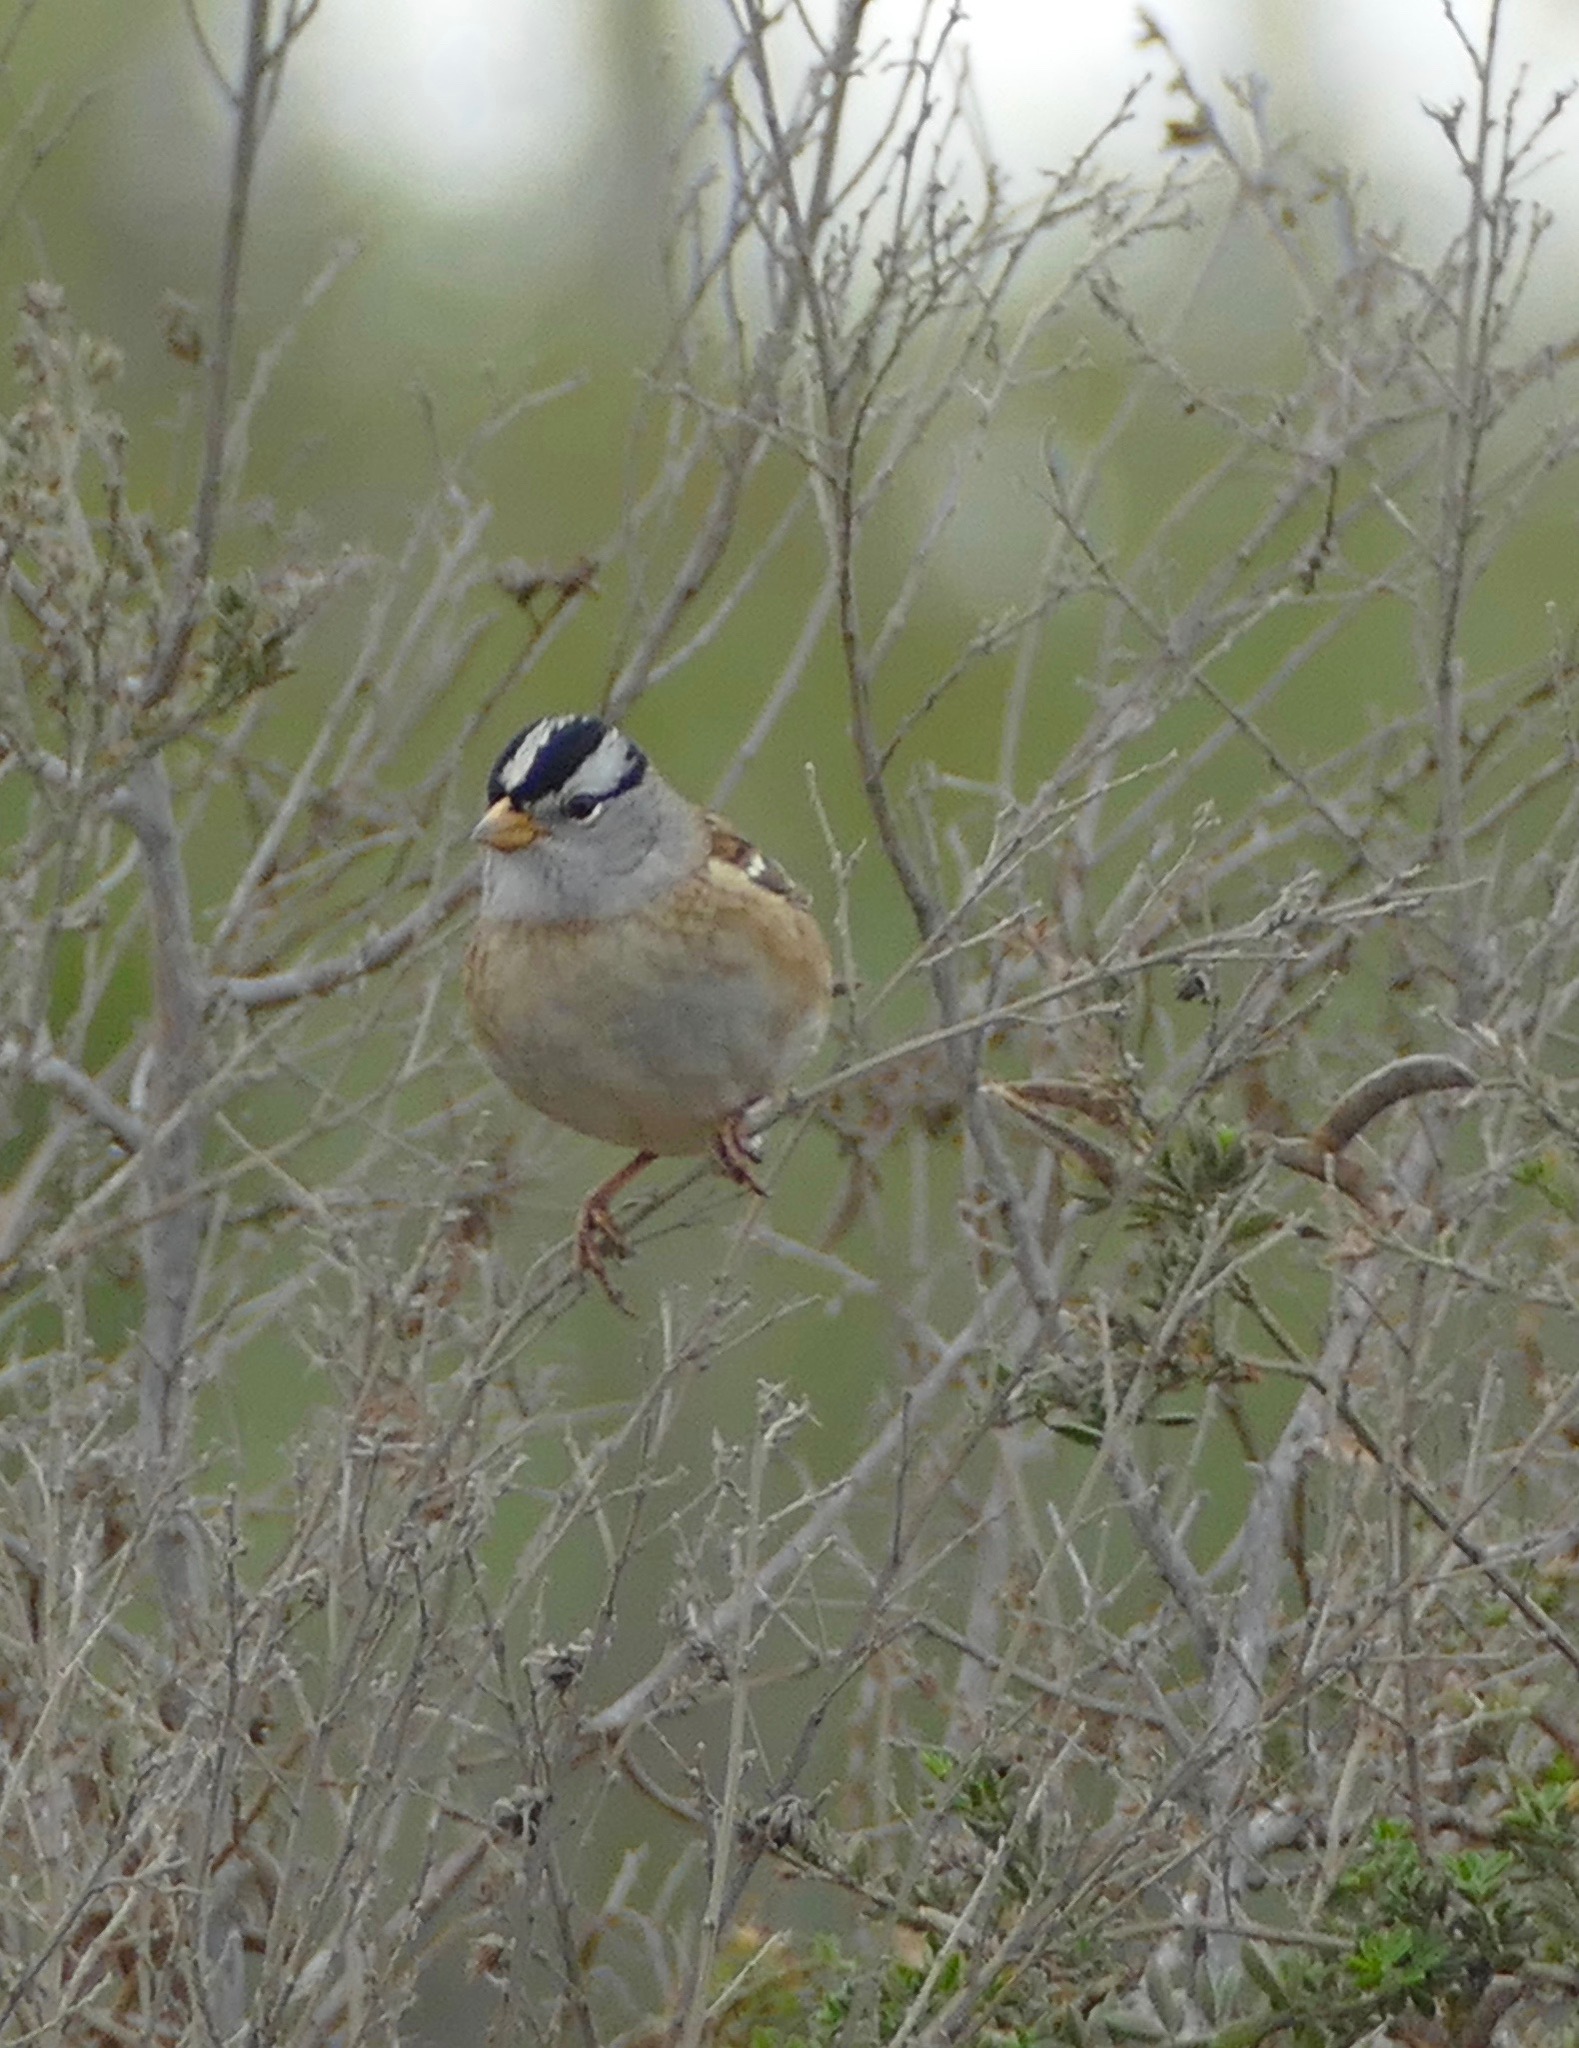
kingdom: Animalia
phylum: Chordata
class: Aves
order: Passeriformes
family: Passerellidae
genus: Zonotrichia
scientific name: Zonotrichia leucophrys
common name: White-crowned sparrow
